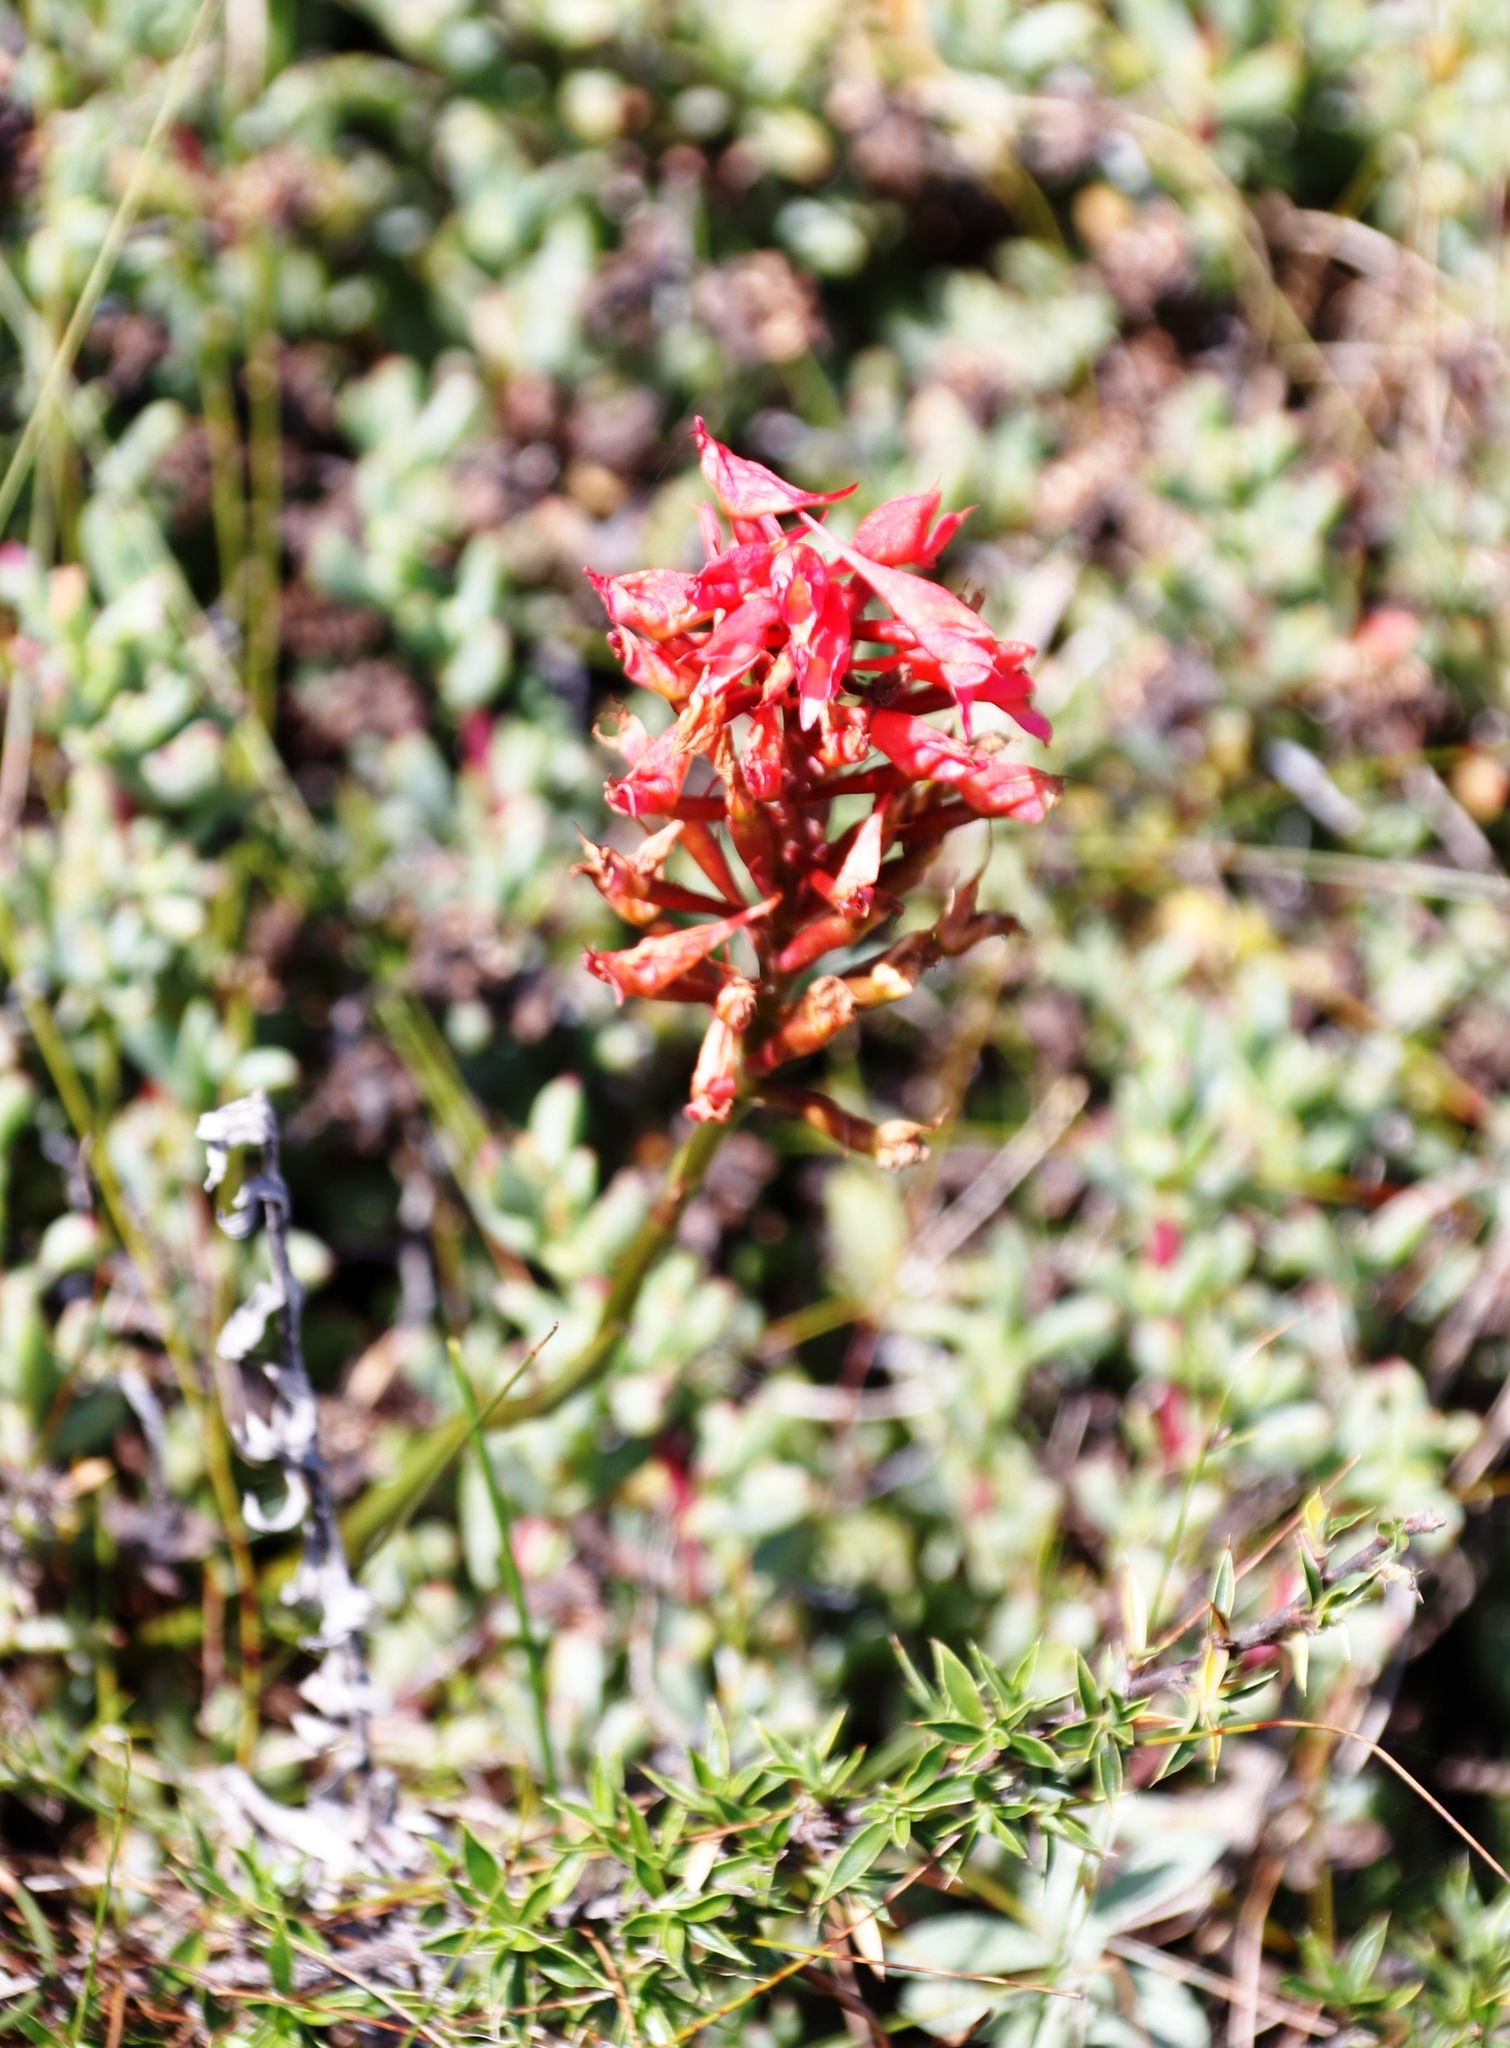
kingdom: Plantae
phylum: Tracheophyta
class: Liliopsida
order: Asparagales
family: Orchidaceae
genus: Disa
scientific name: Disa ferruginea
